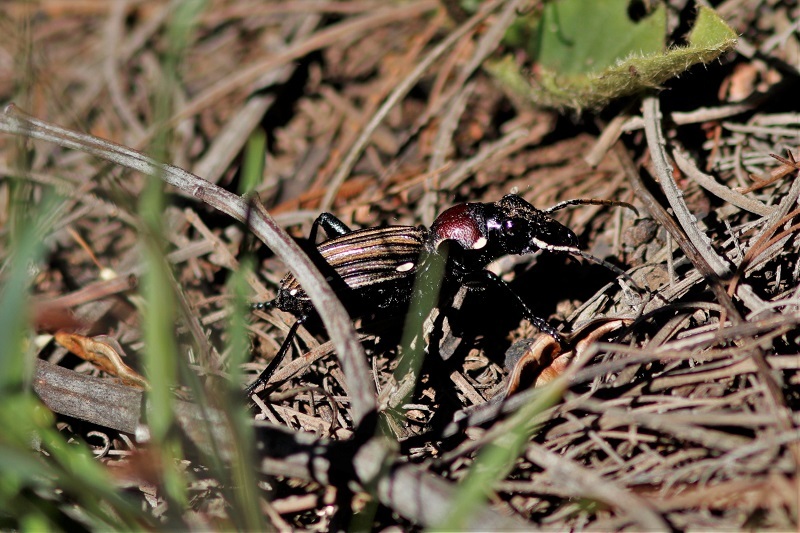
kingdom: Animalia
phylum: Arthropoda
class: Insecta
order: Coleoptera
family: Carabidae
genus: Anthia
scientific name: Anthia decemguttata
